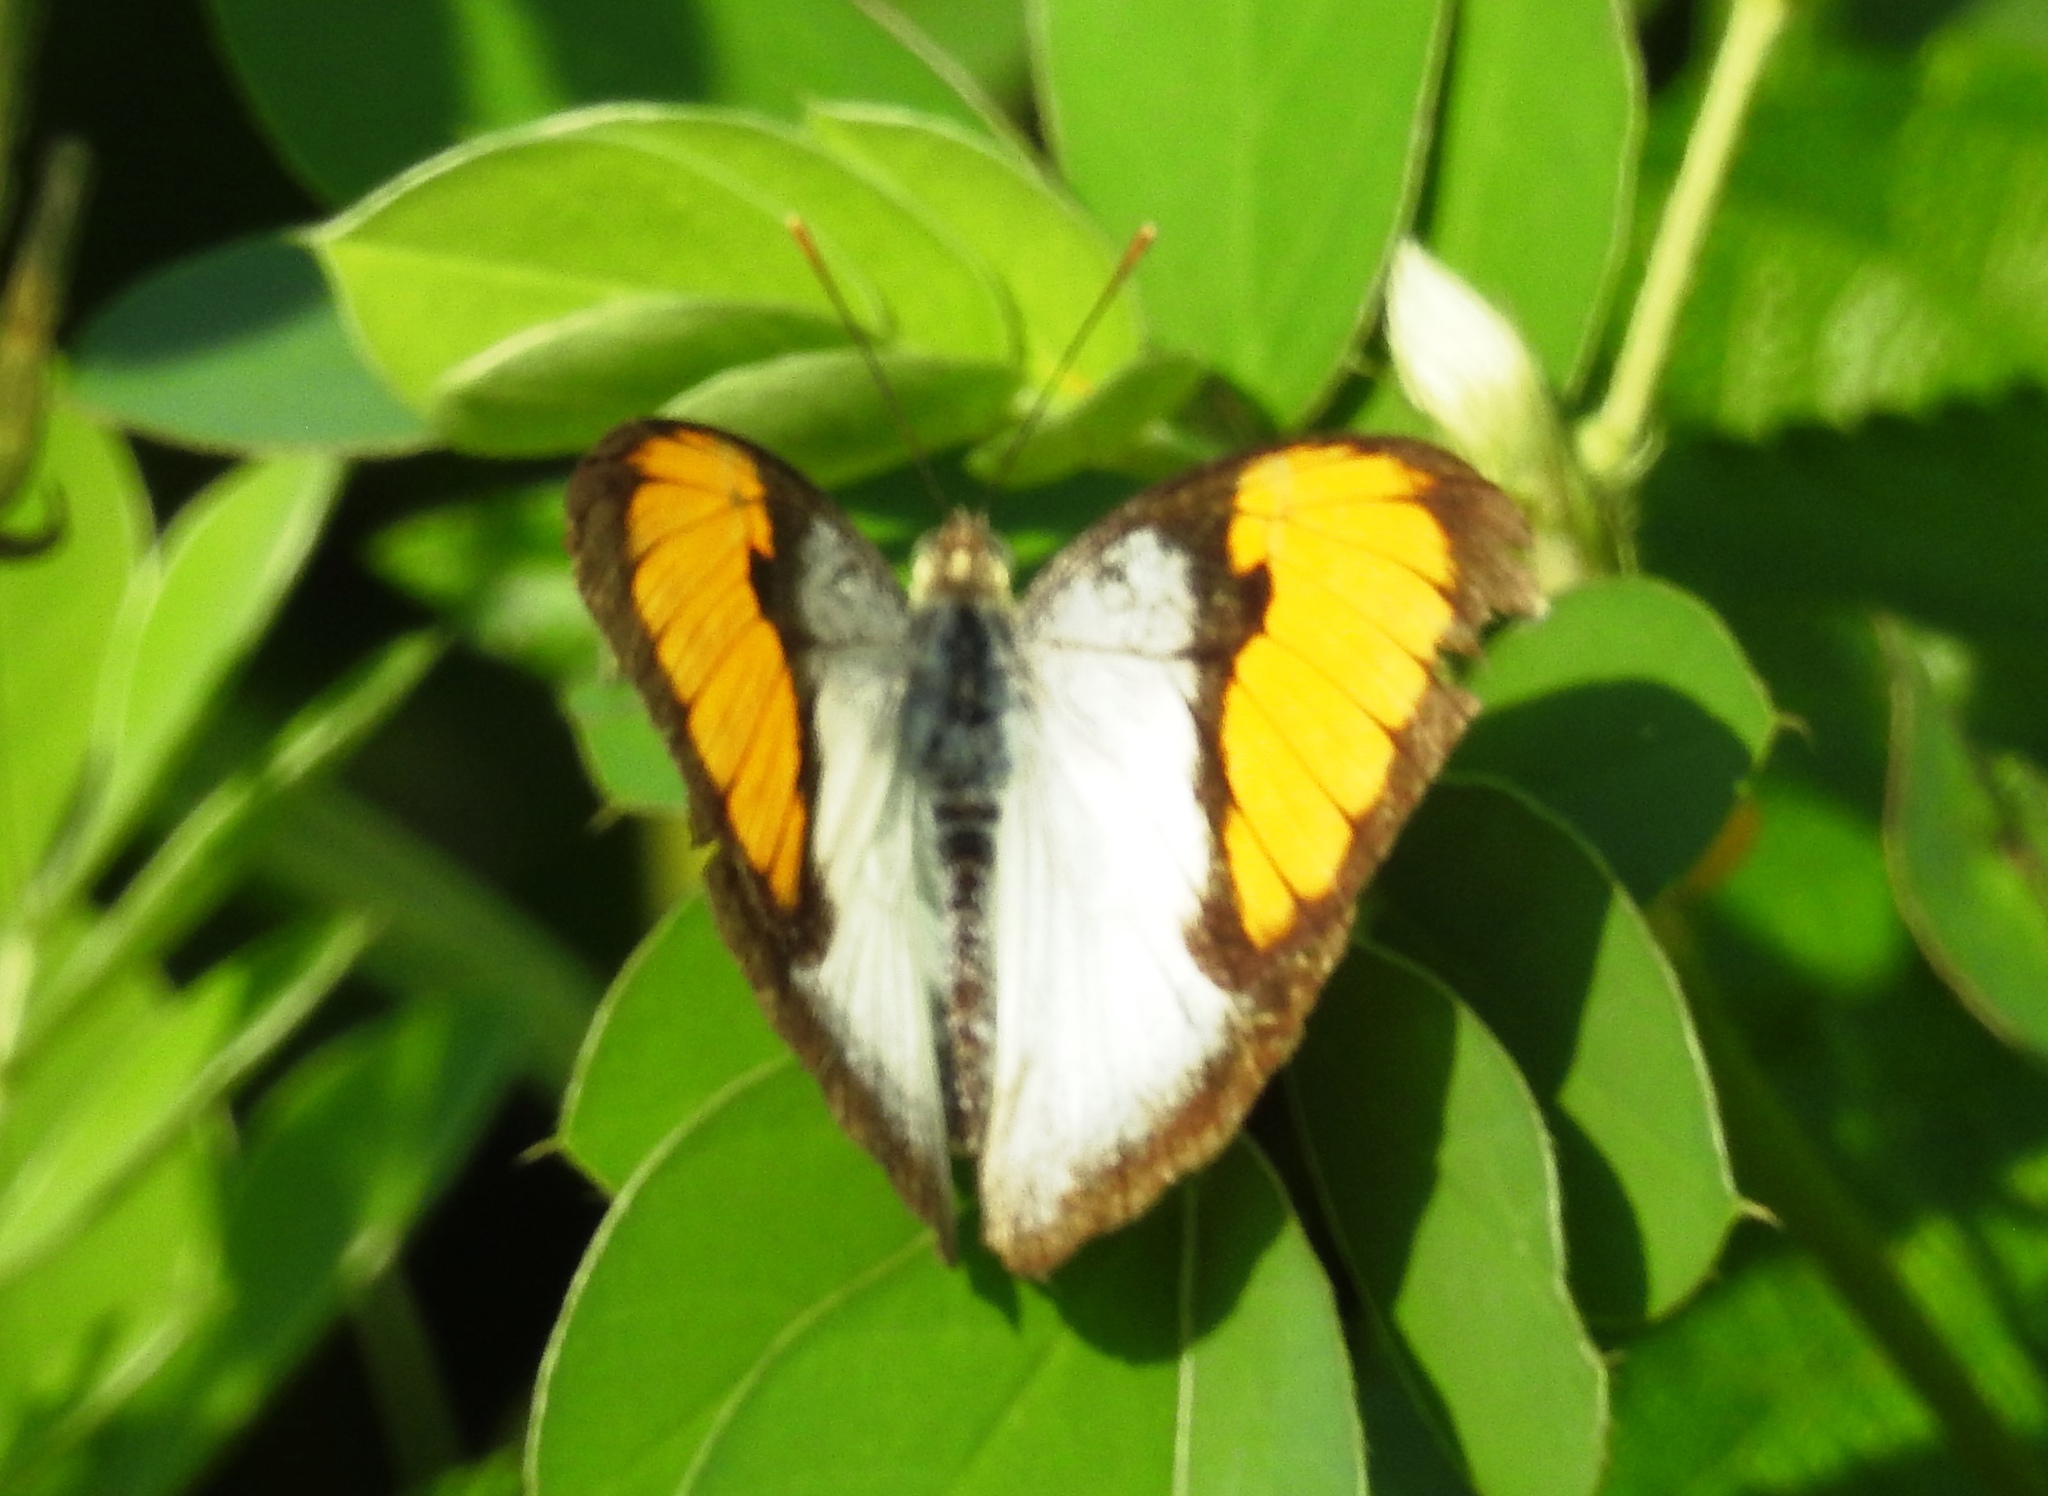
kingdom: Animalia
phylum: Arthropoda
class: Insecta
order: Lepidoptera
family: Pieridae
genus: Ixias
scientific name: Ixias marianne
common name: White orange tip
